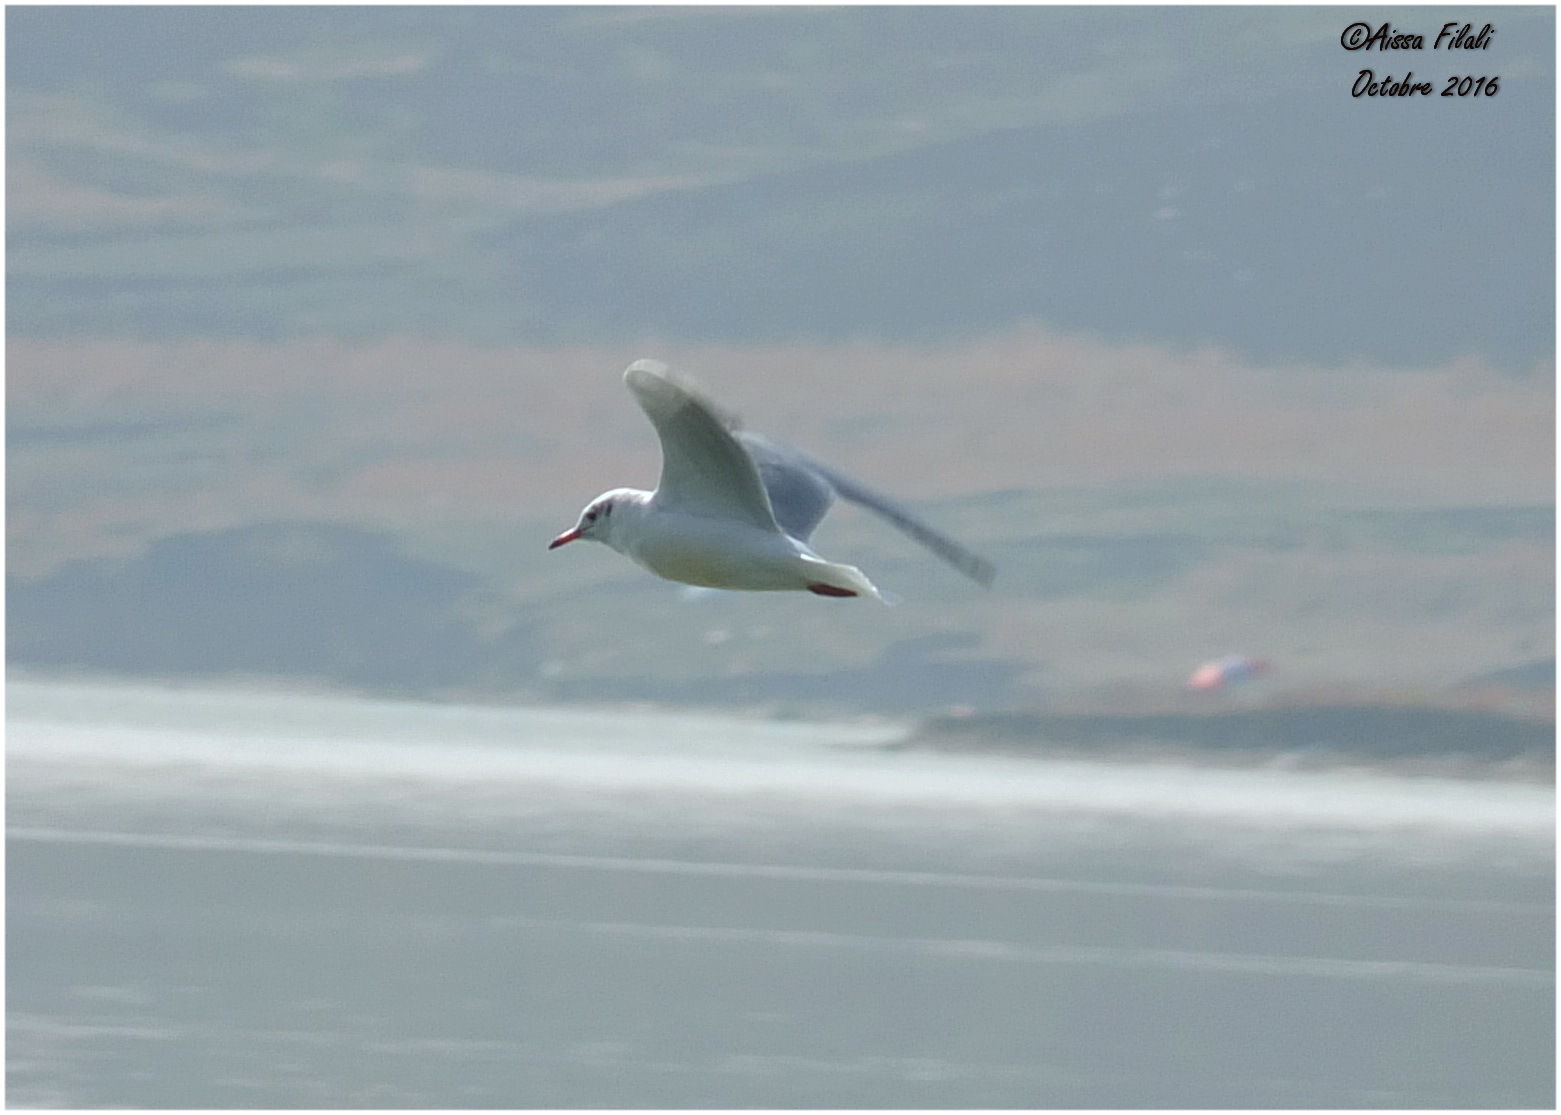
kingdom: Animalia
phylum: Chordata
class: Aves
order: Charadriiformes
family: Laridae
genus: Chroicocephalus
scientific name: Chroicocephalus ridibundus
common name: Black-headed gull
